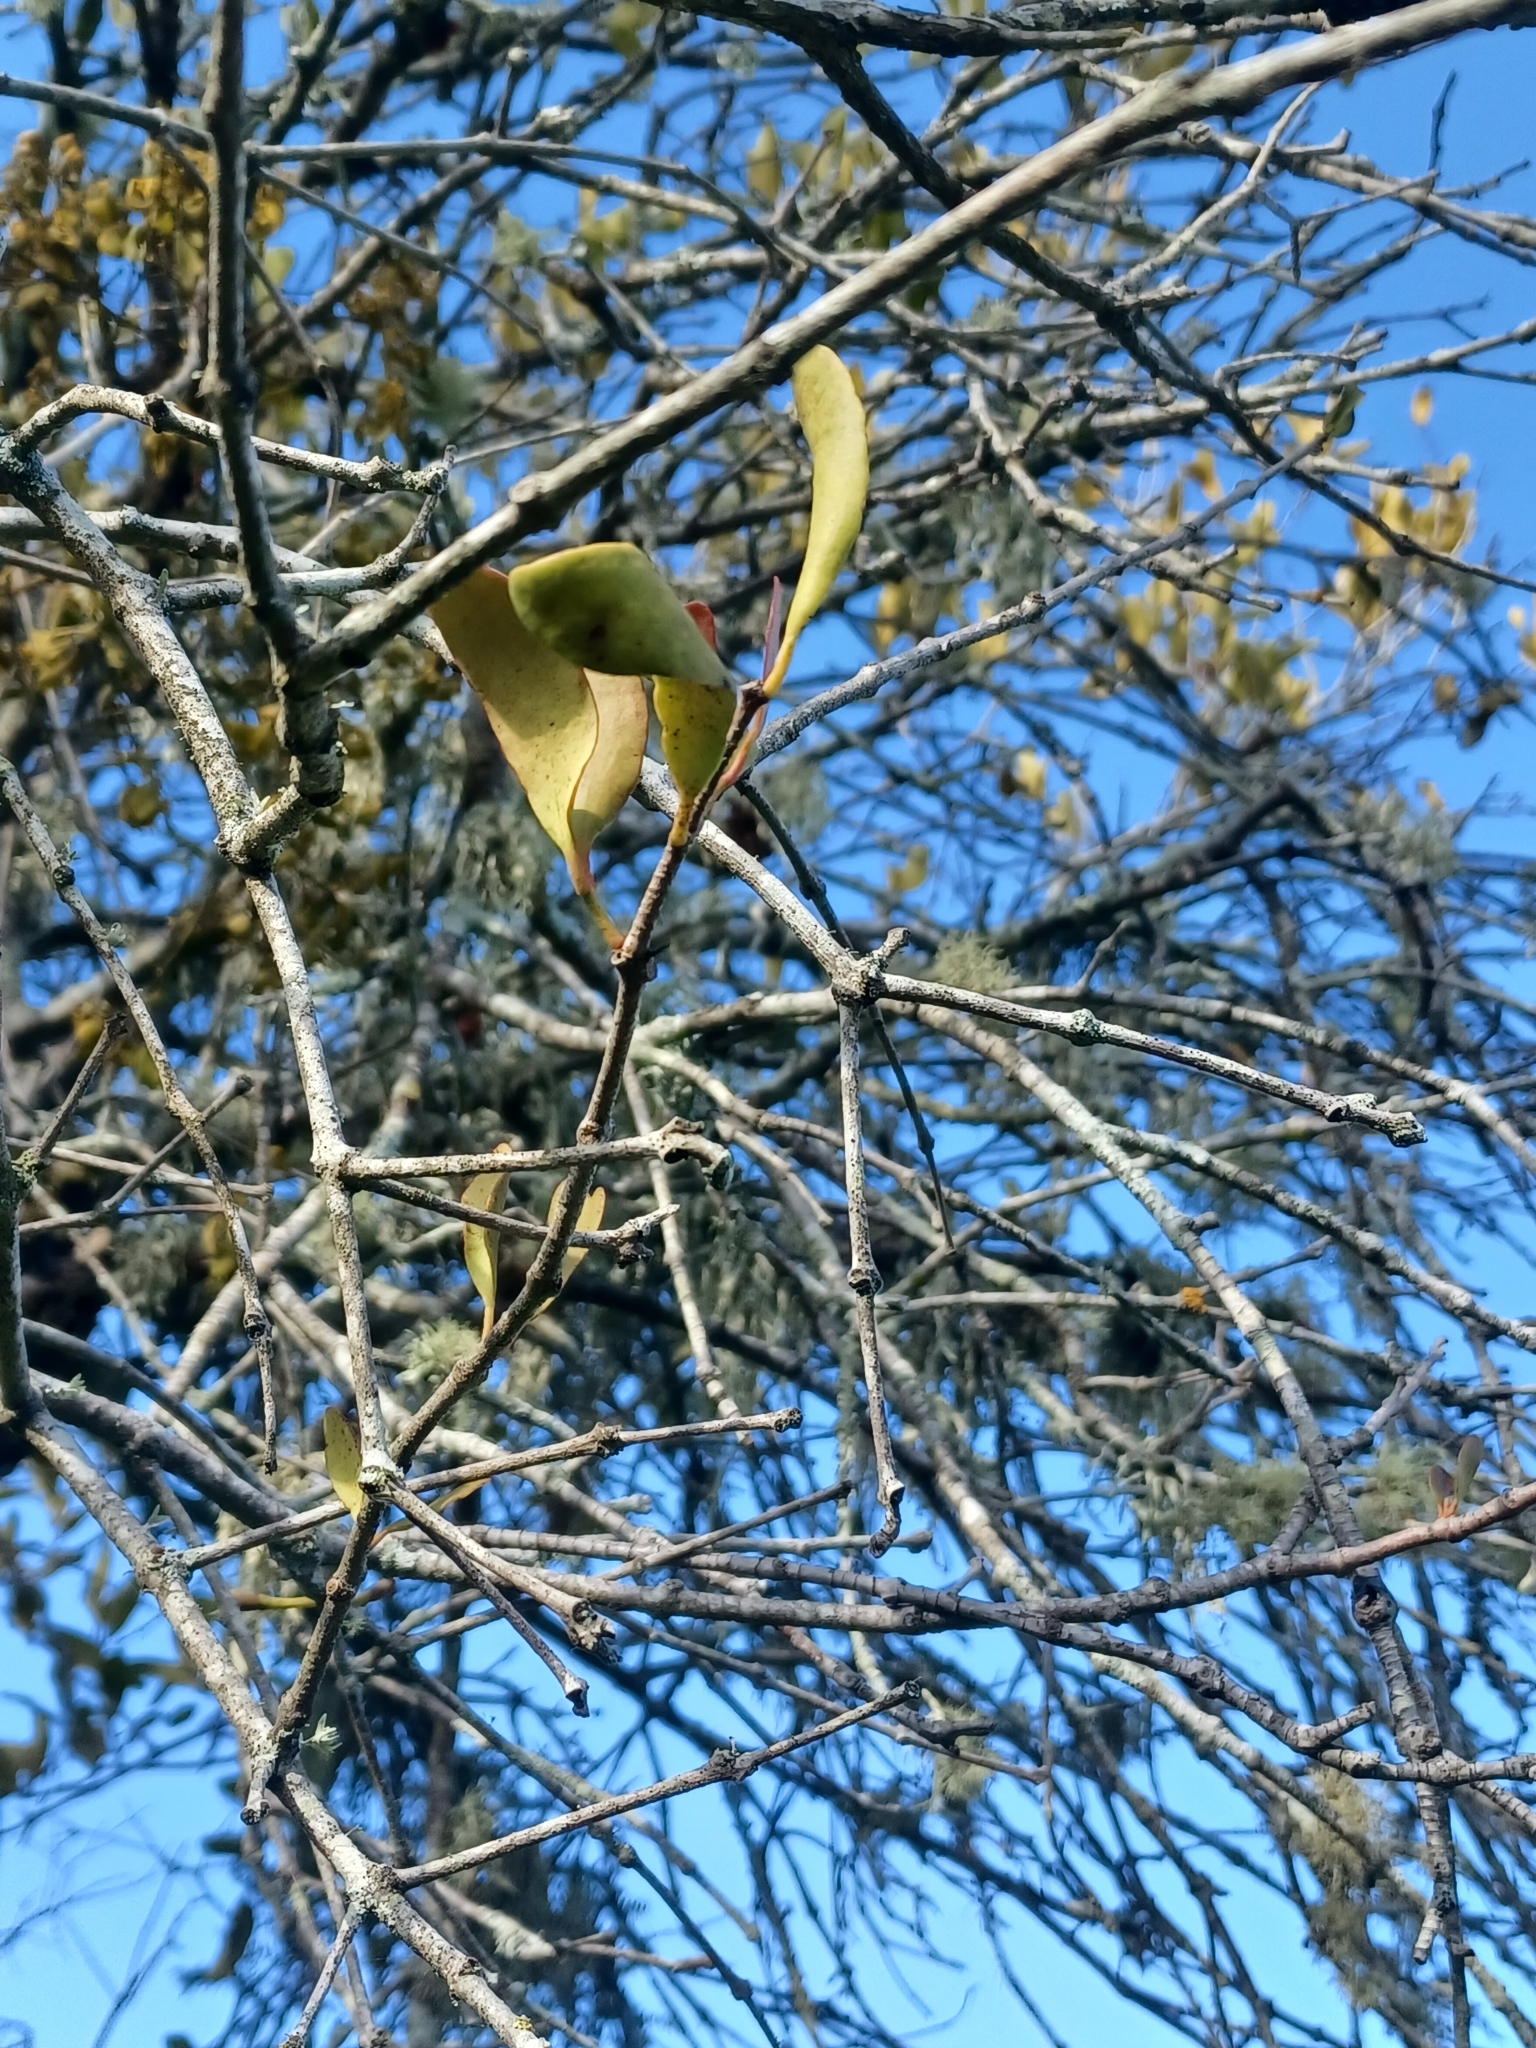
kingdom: Plantae
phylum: Tracheophyta
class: Magnoliopsida
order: Santalales
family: Loranthaceae
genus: Dendrophthoe
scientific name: Dendrophthoe vitellina
